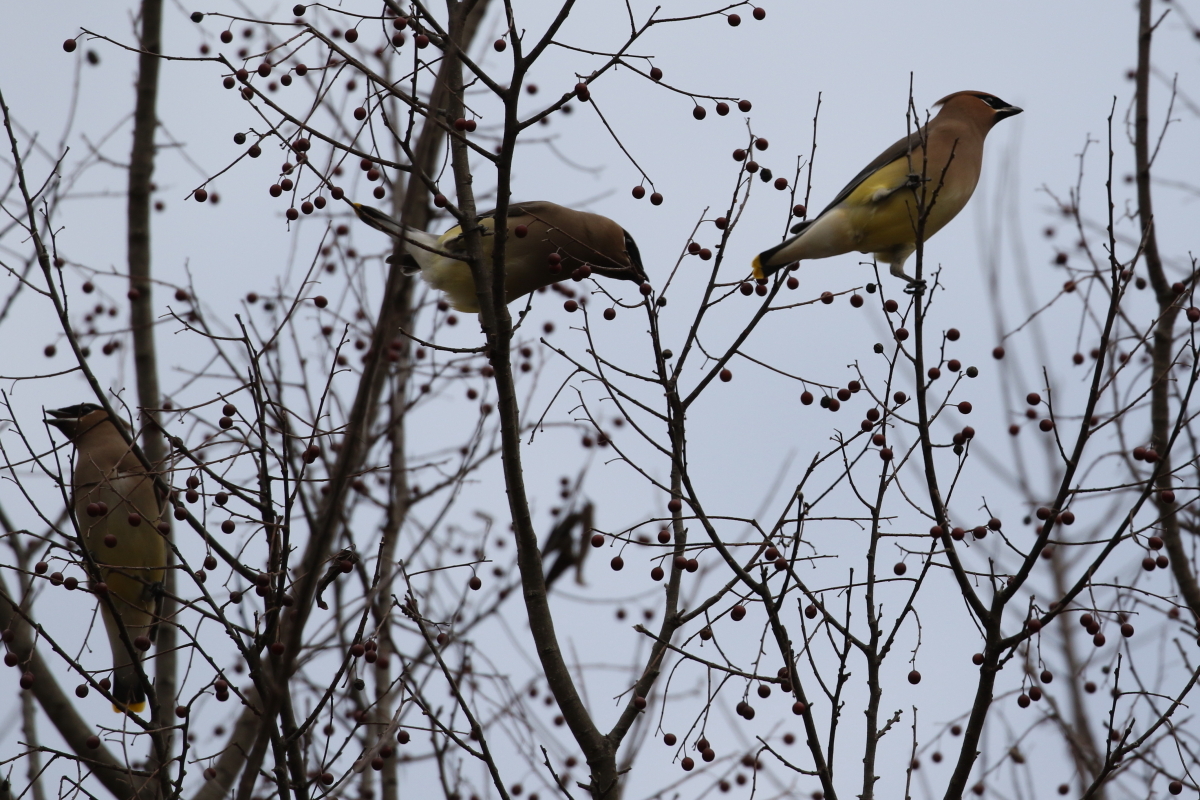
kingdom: Animalia
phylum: Chordata
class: Aves
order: Passeriformes
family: Bombycillidae
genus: Bombycilla
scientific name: Bombycilla cedrorum
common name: Cedar waxwing
